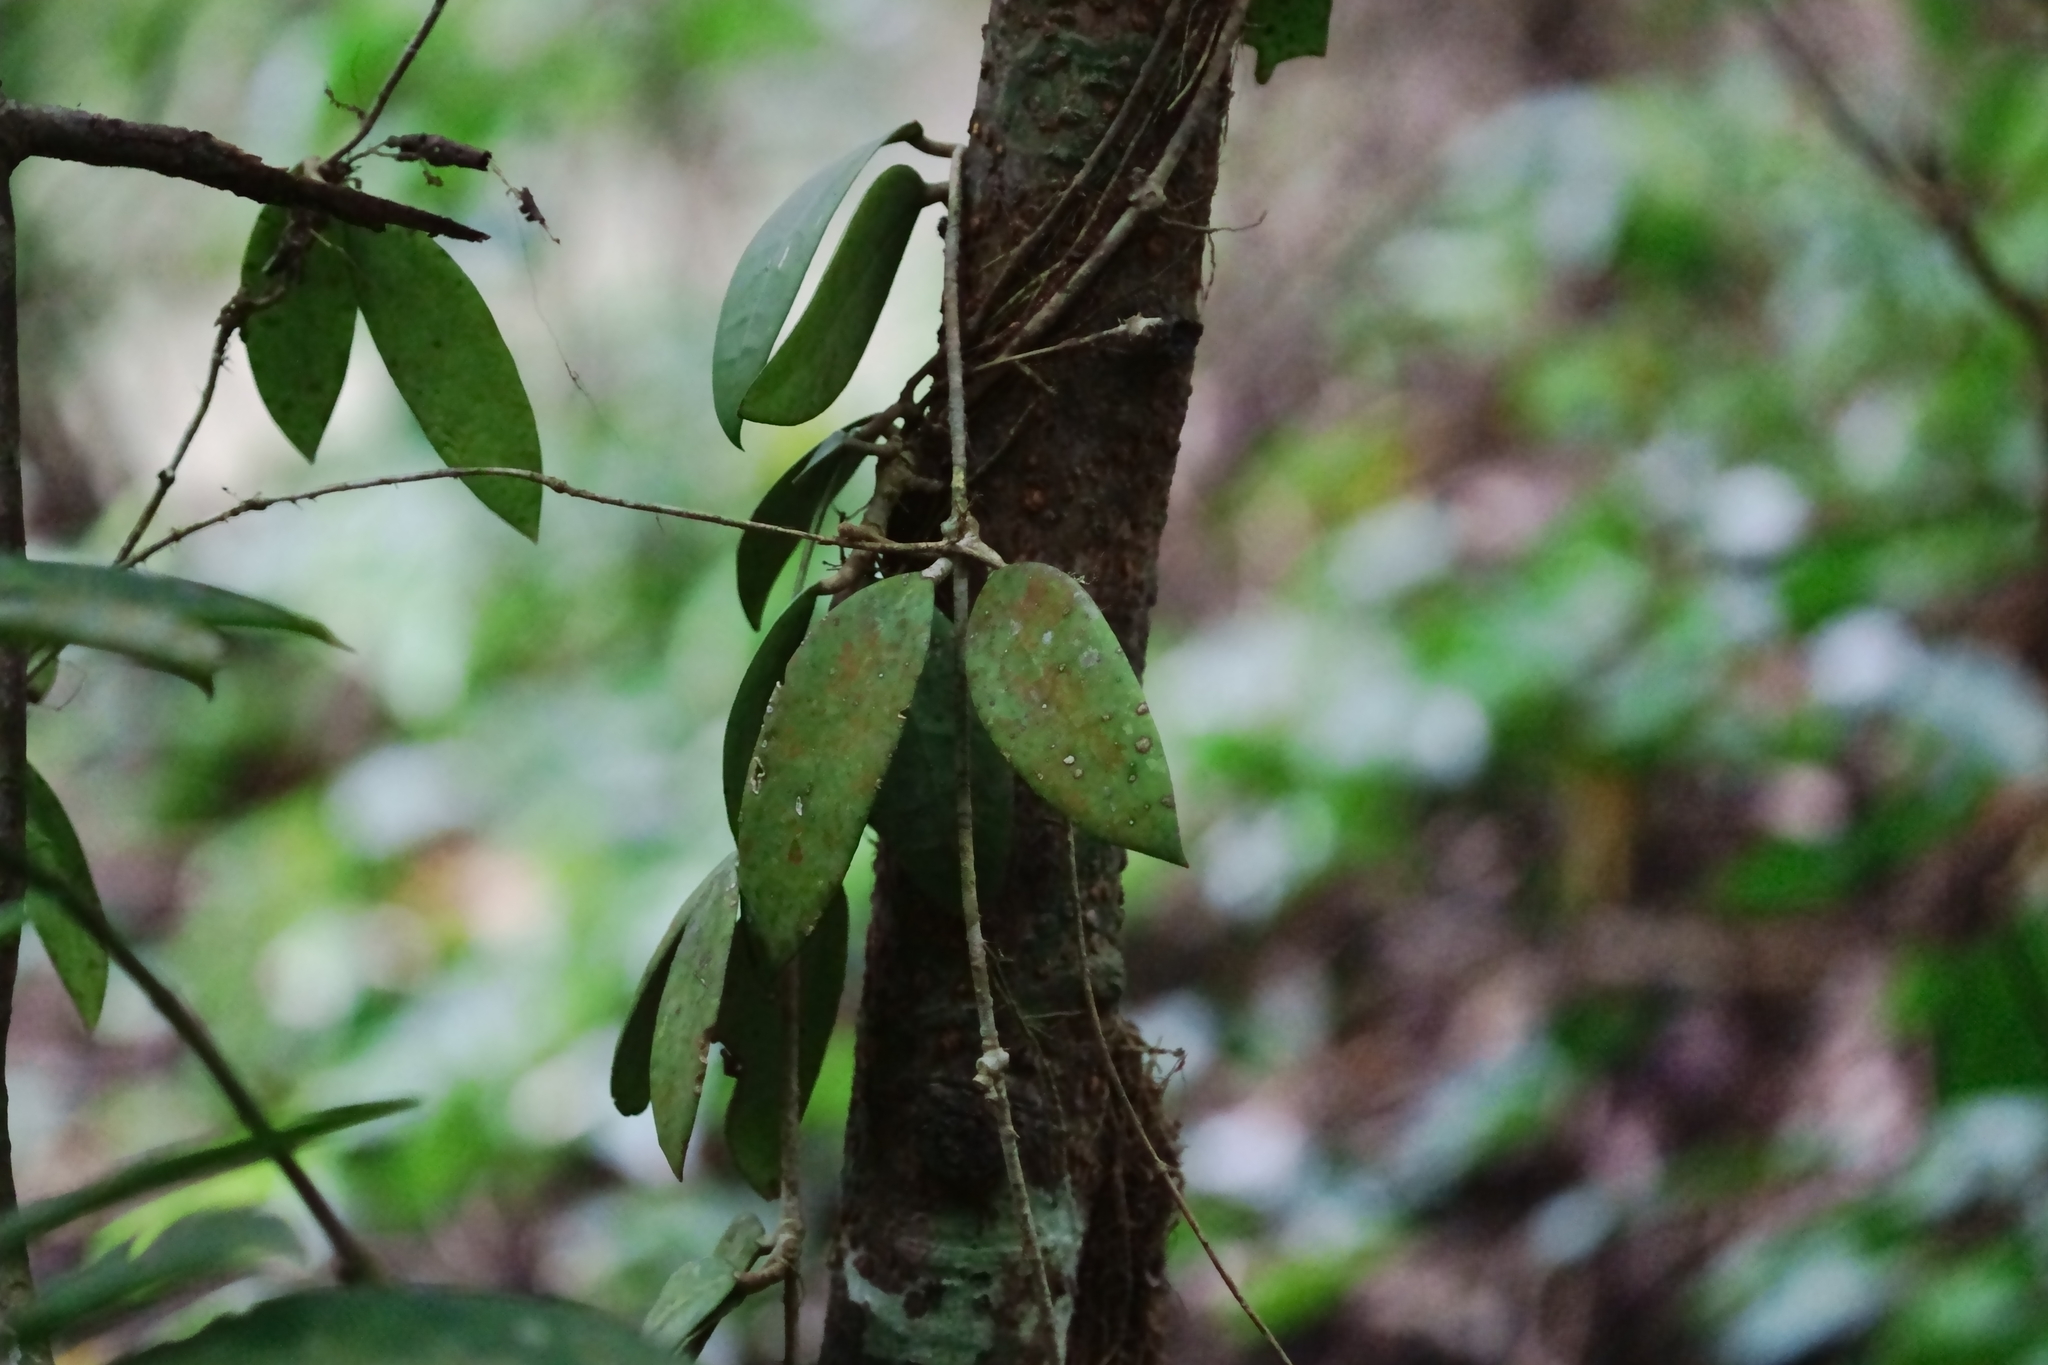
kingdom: Plantae
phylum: Tracheophyta
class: Magnoliopsida
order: Gentianales
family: Apocynaceae
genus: Hoya
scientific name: Hoya verticillata
